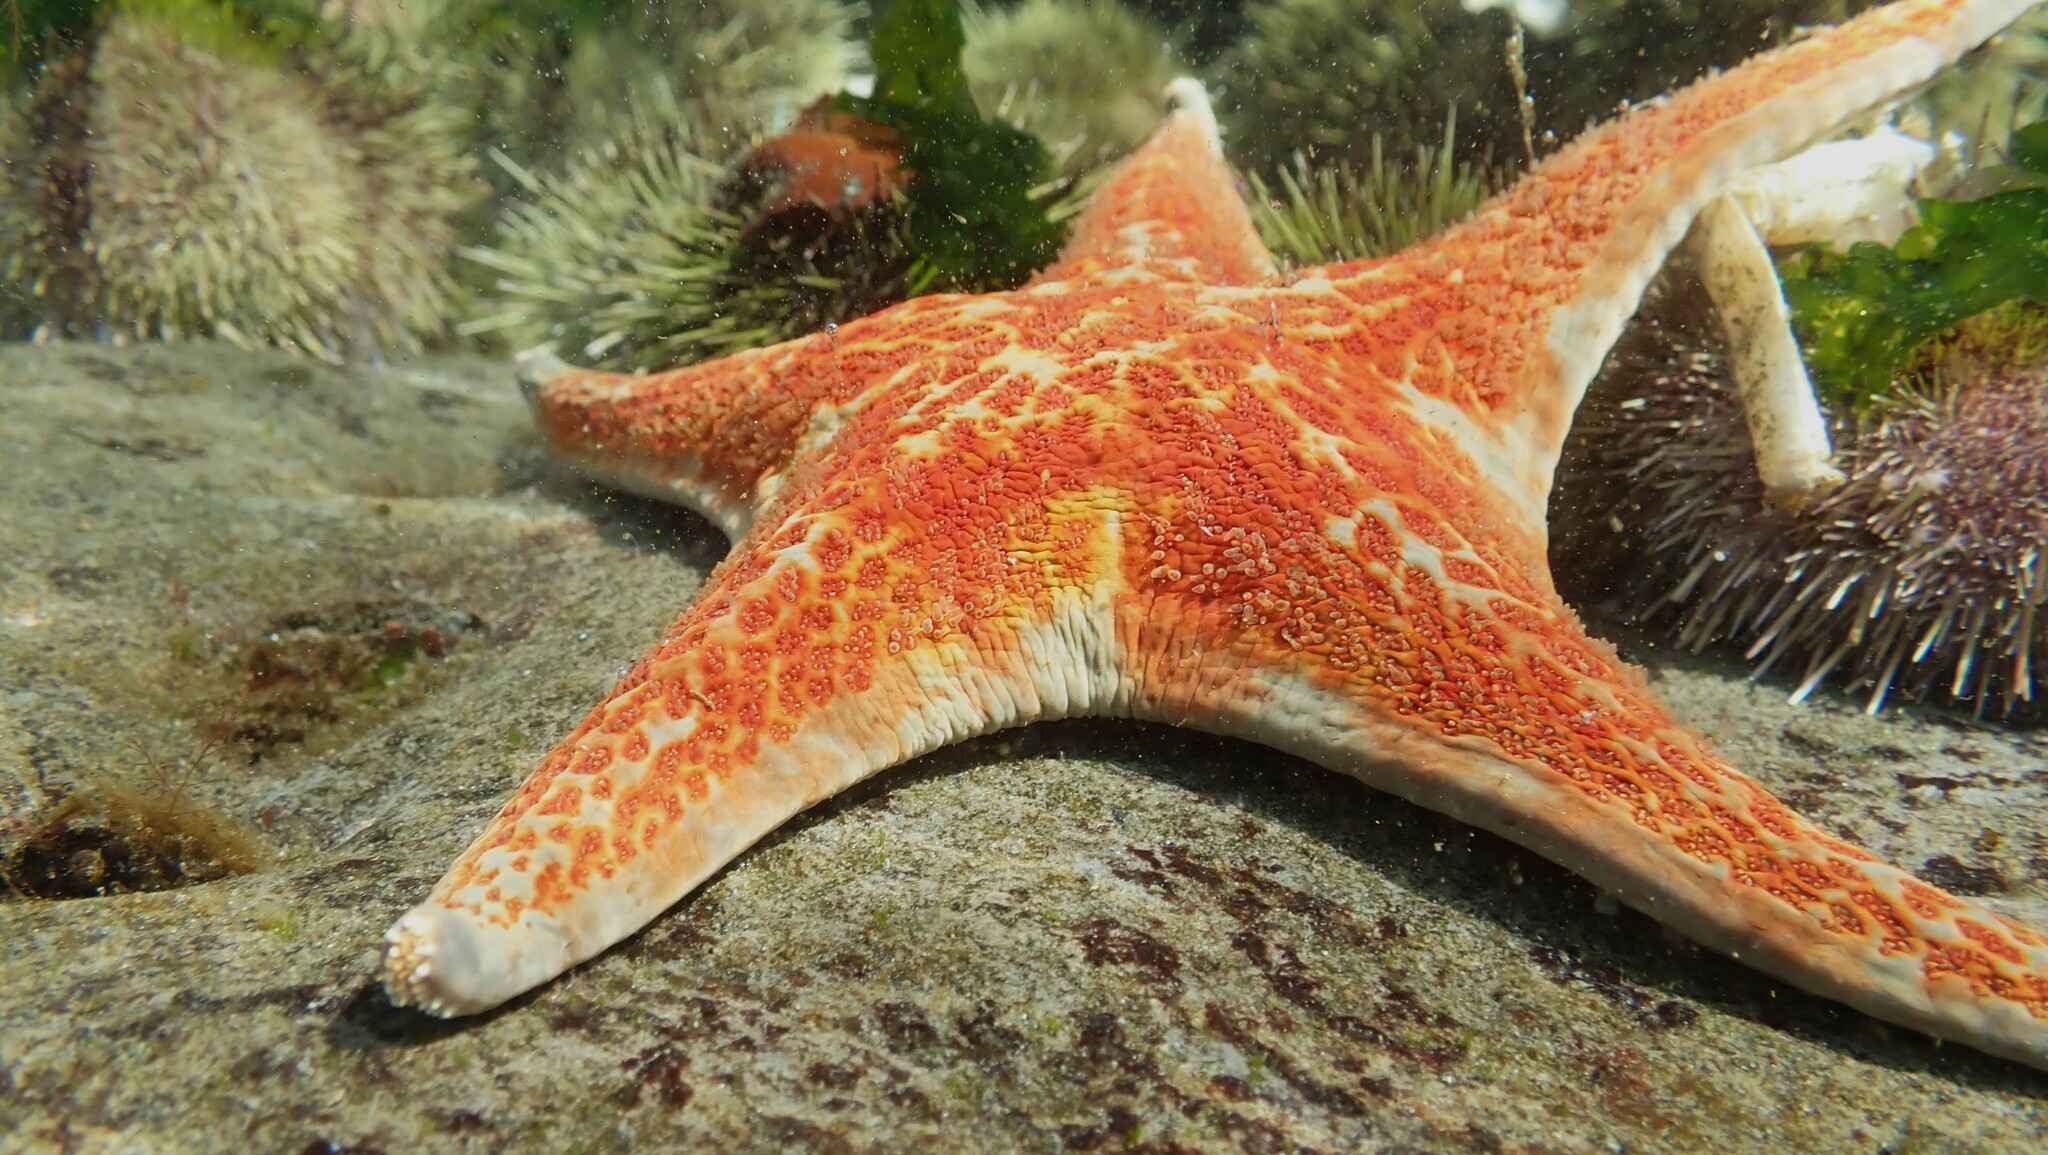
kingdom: Animalia
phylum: Echinodermata
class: Asteroidea
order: Valvatida
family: Asteropseidae
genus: Dermasterias
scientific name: Dermasterias imbricata
